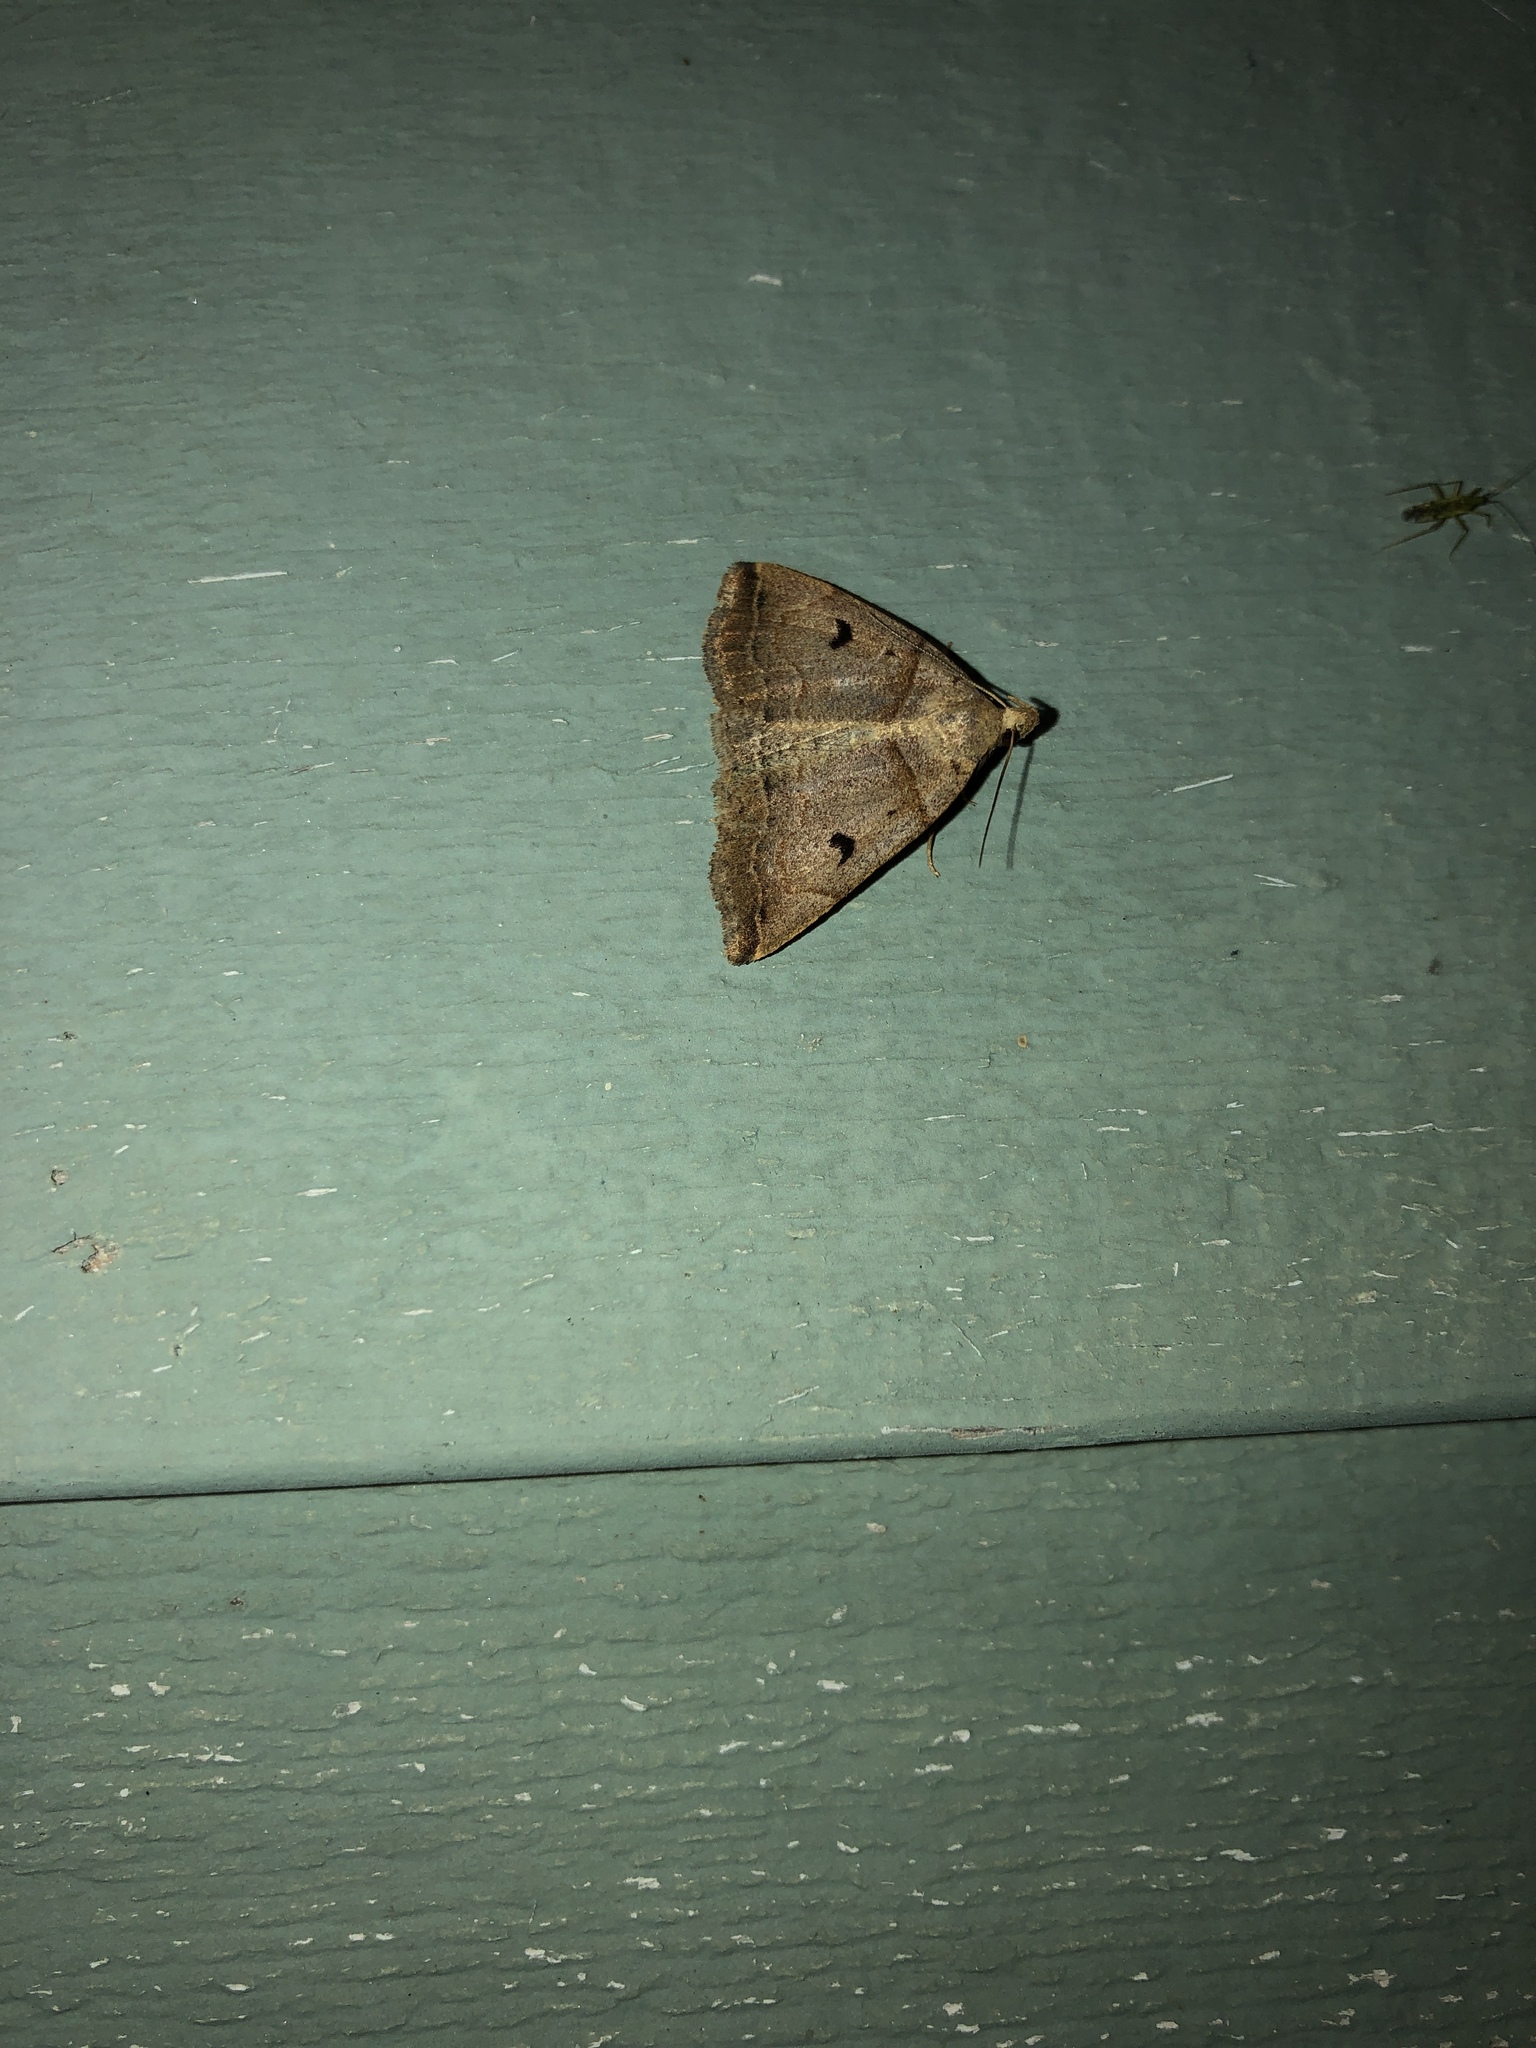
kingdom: Animalia
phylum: Arthropoda
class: Insecta
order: Lepidoptera
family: Erebidae
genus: Zanclognatha
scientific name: Zanclognatha laevigata
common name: Variable fan-foot
